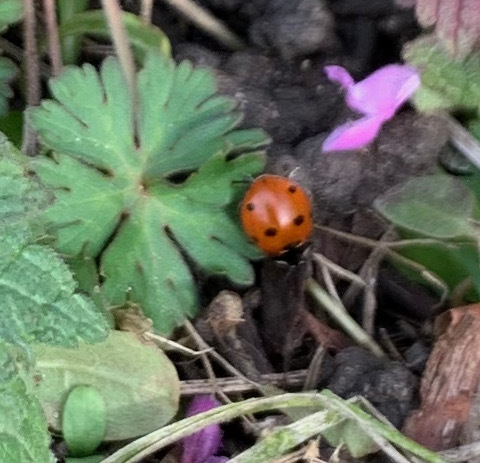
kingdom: Animalia
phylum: Arthropoda
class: Insecta
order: Coleoptera
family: Coccinellidae
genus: Coccinella
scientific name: Coccinella septempunctata
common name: Sevenspotted lady beetle
